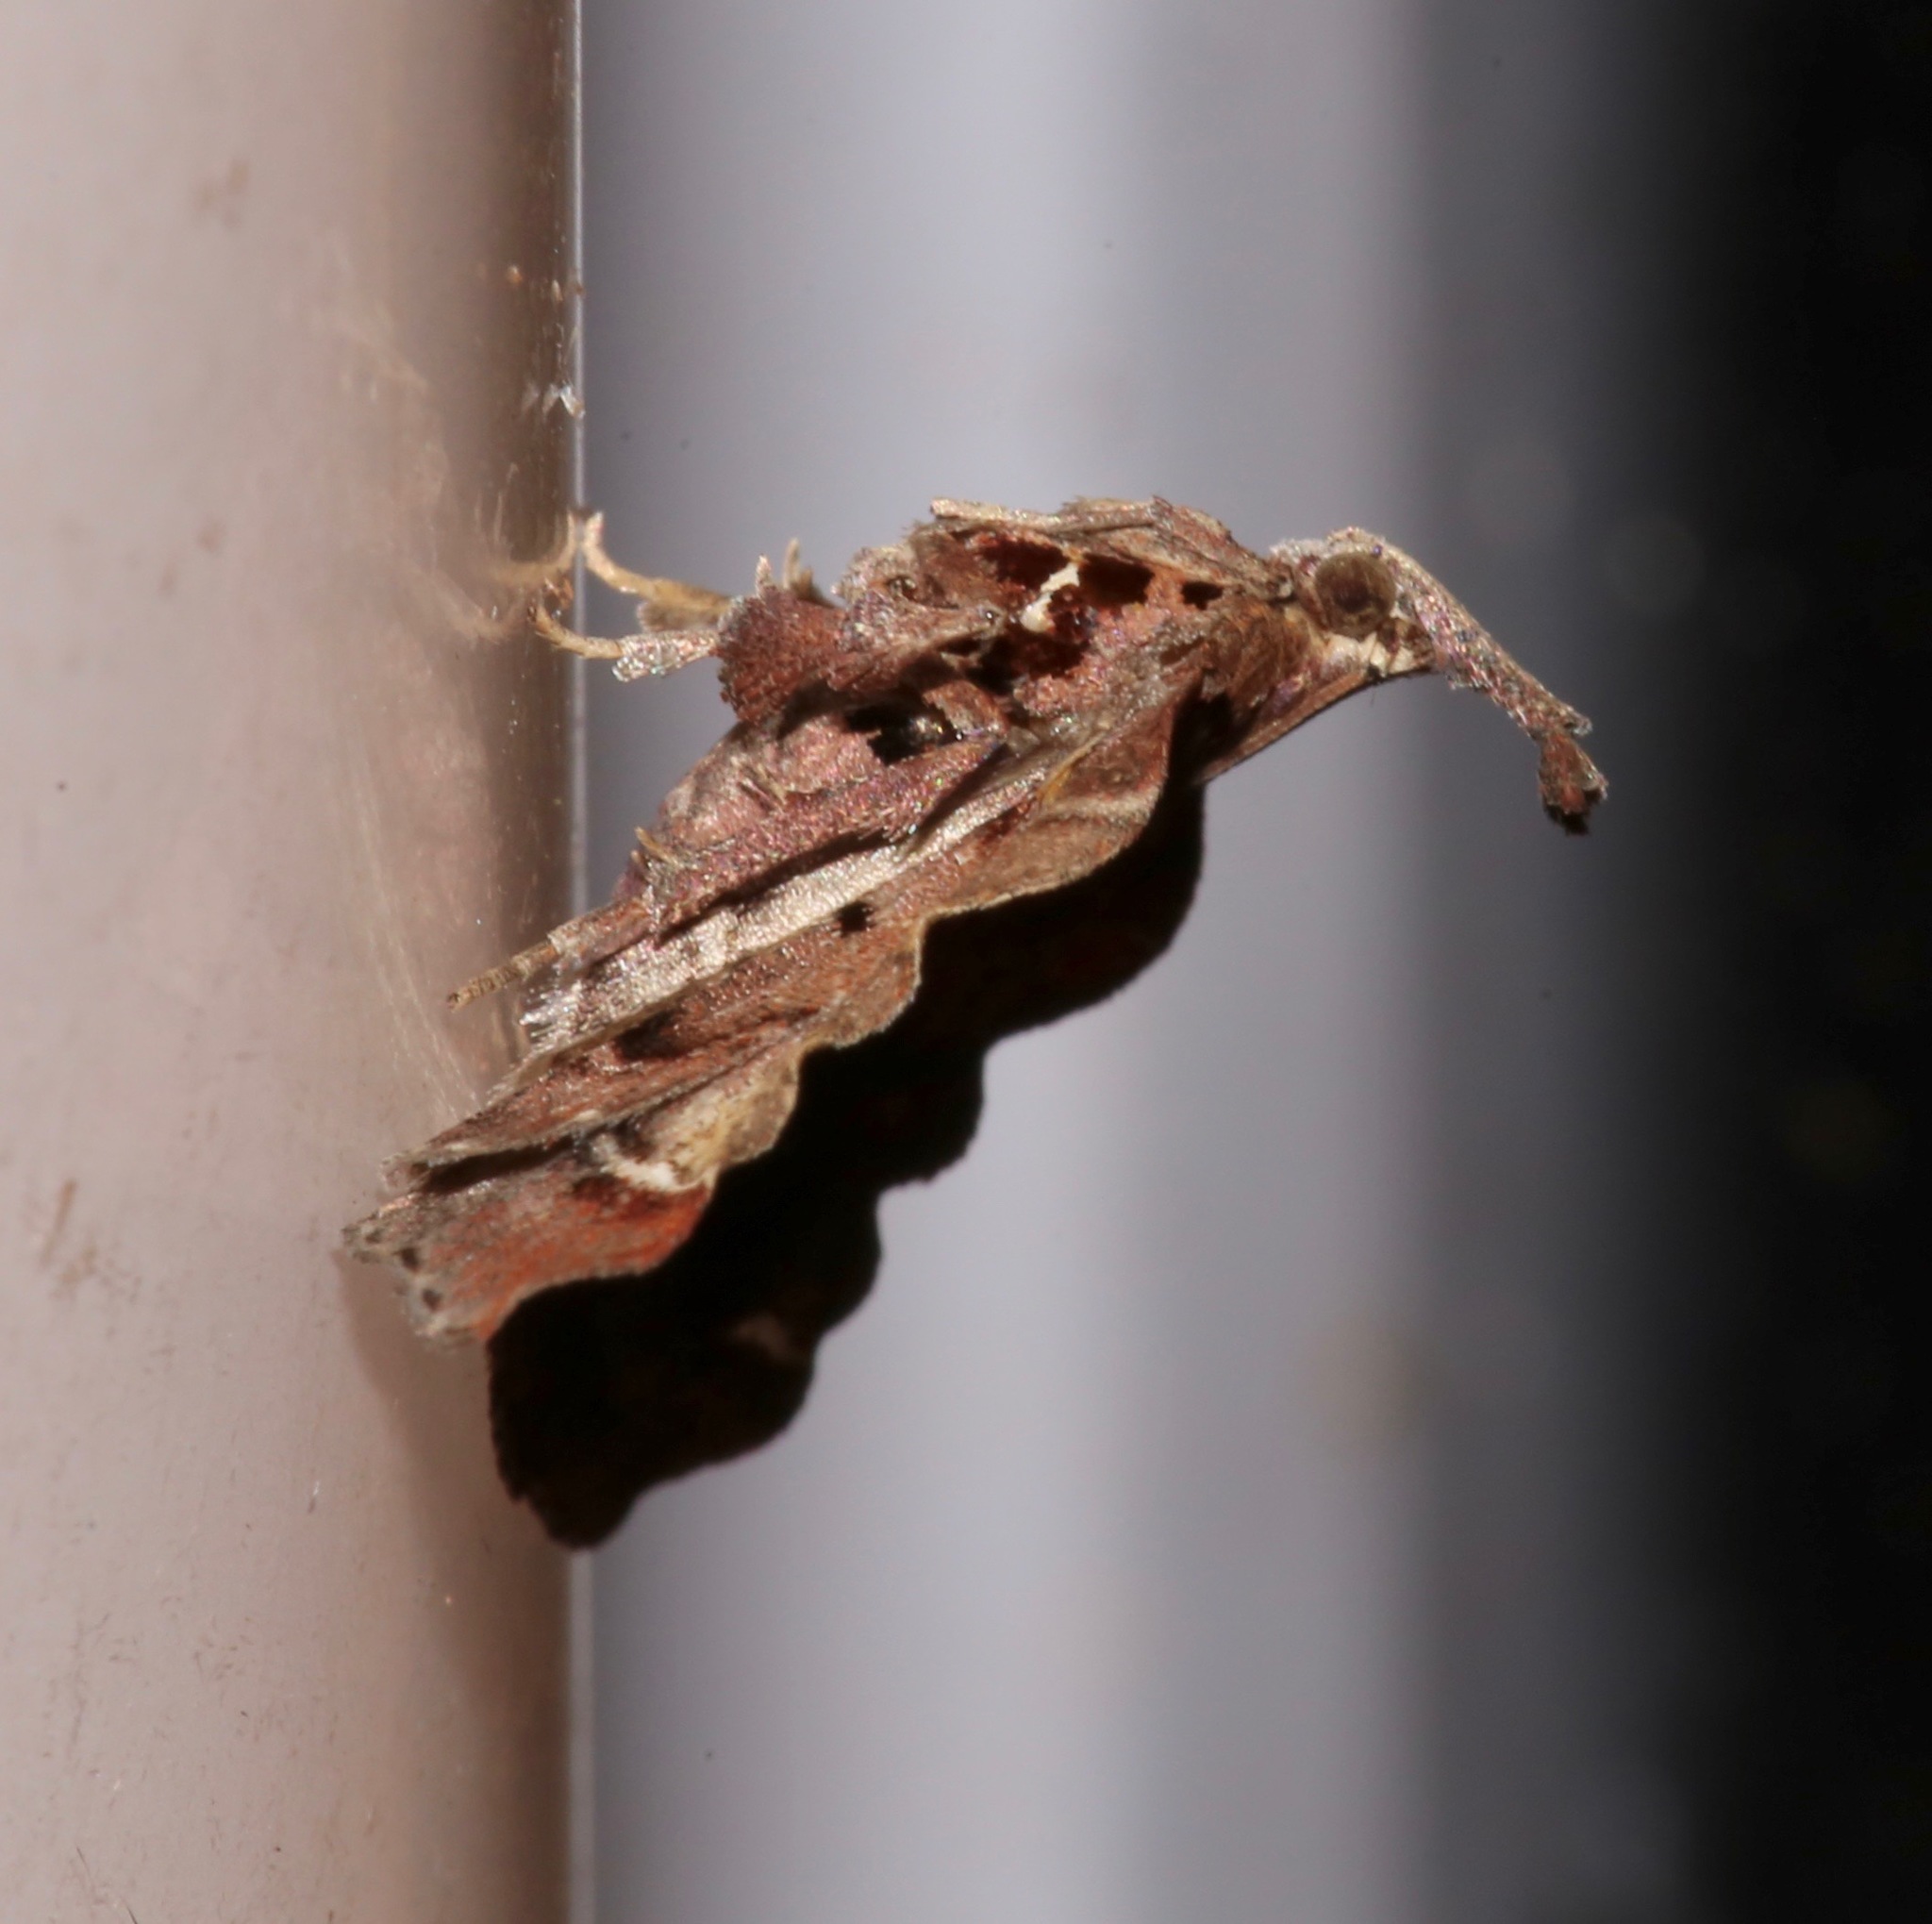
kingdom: Animalia
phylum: Arthropoda
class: Insecta
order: Lepidoptera
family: Pyralidae
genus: Clydonopteron
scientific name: Clydonopteron sacculana
